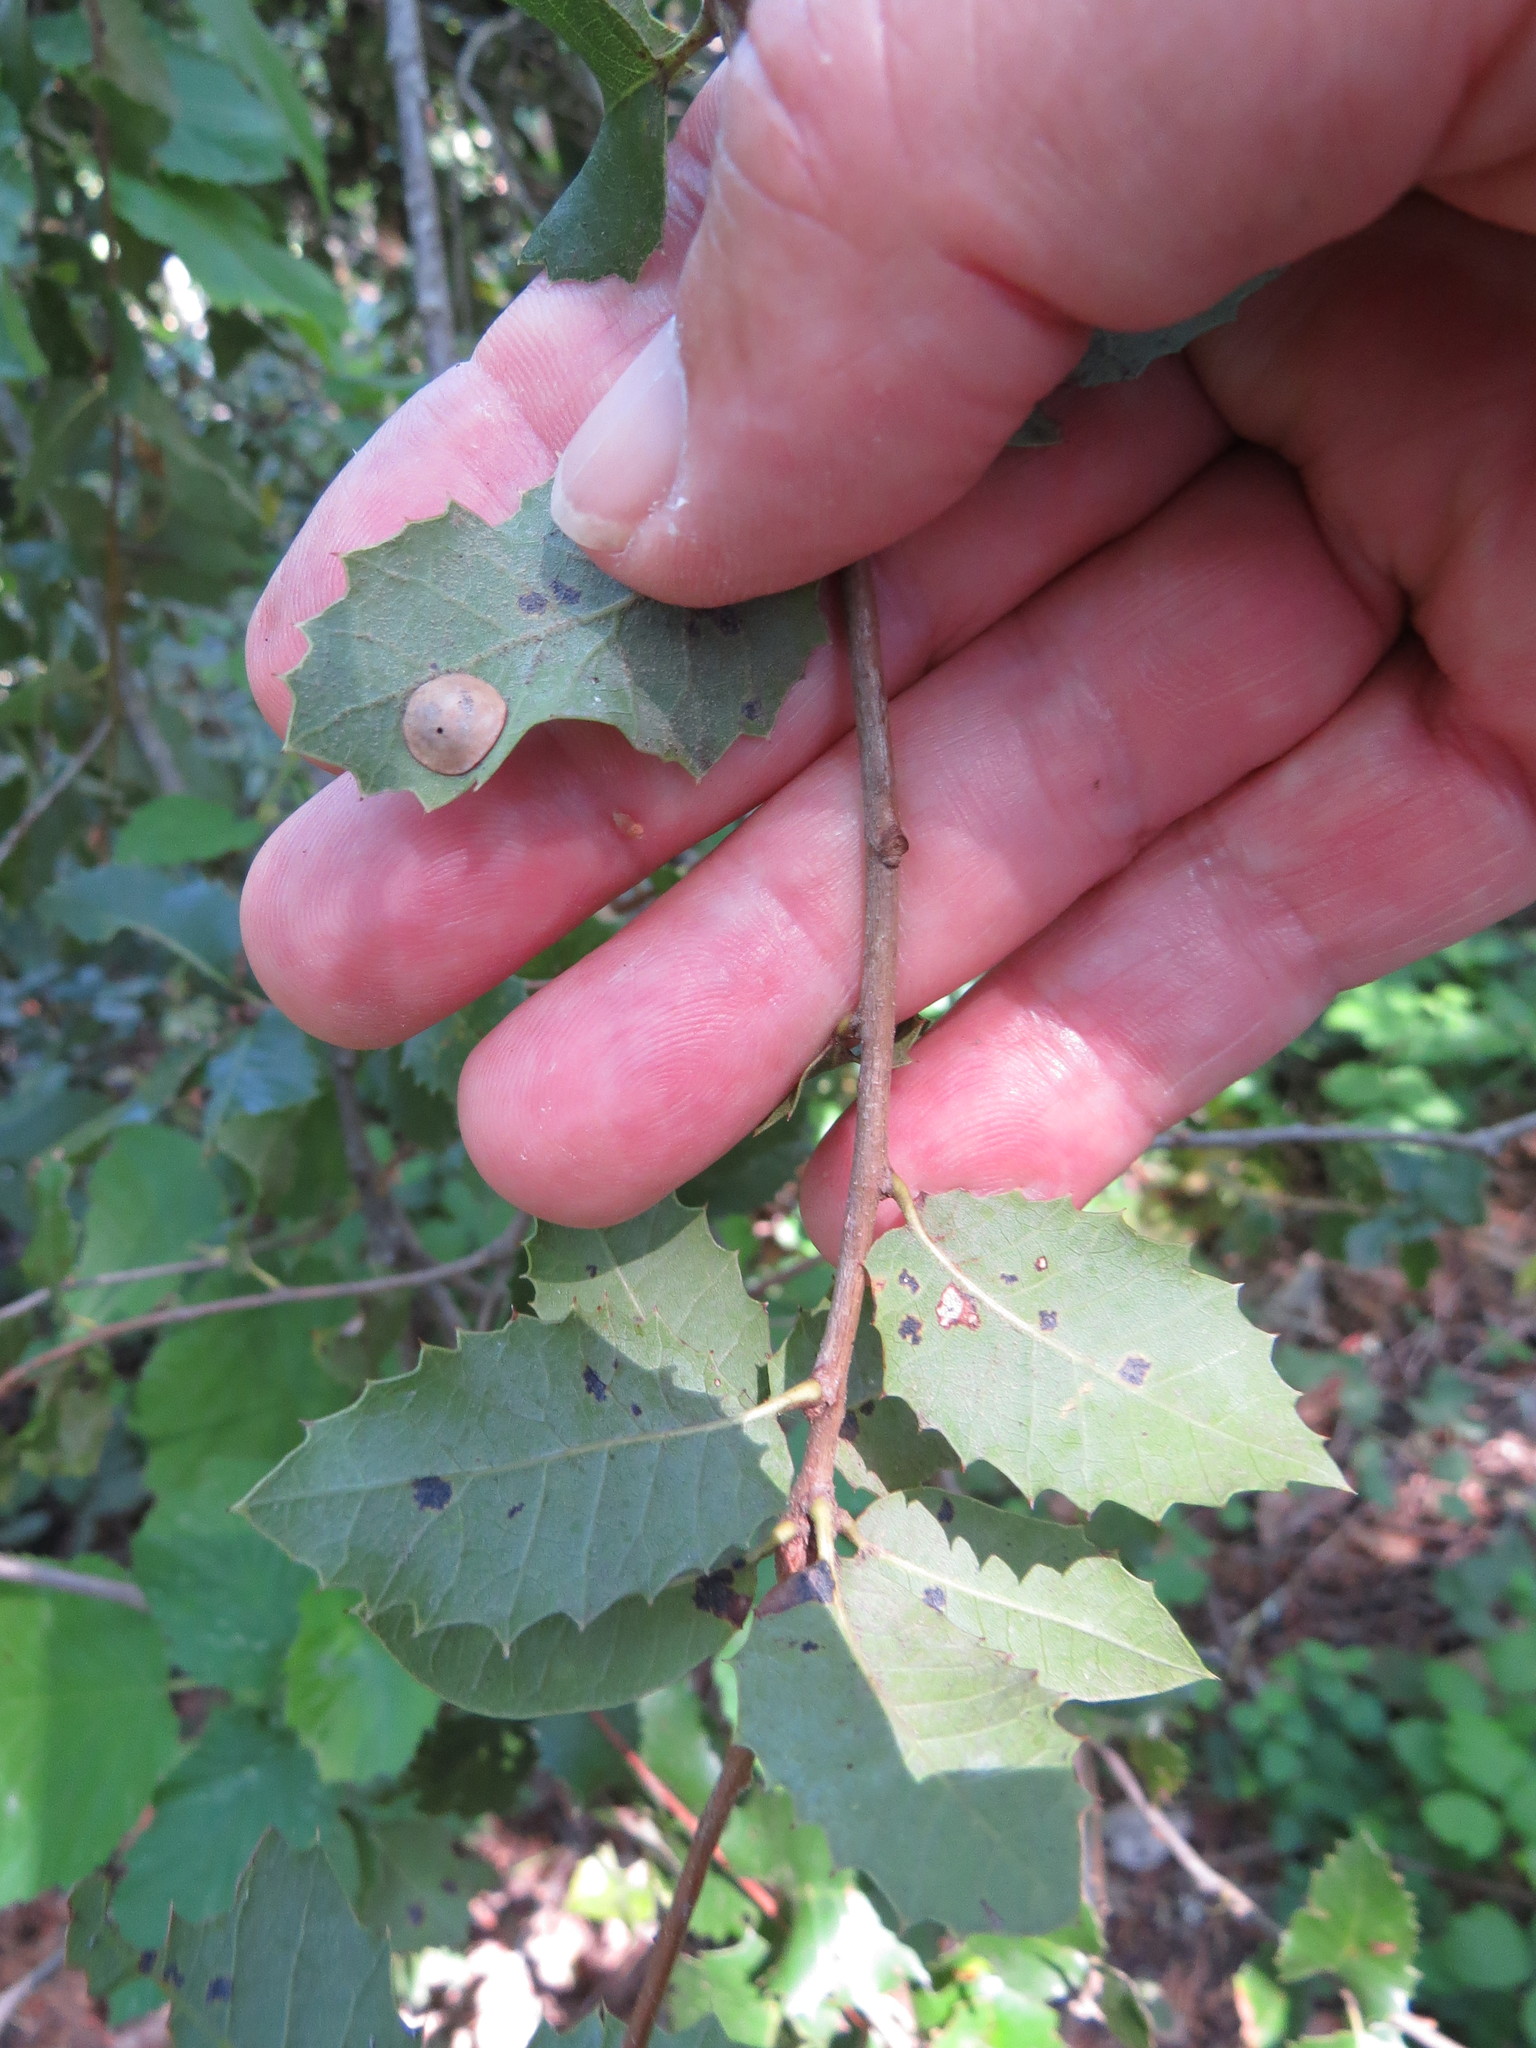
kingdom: Animalia
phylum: Arthropoda
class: Insecta
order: Hymenoptera
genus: Paracraspis
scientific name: Paracraspis
